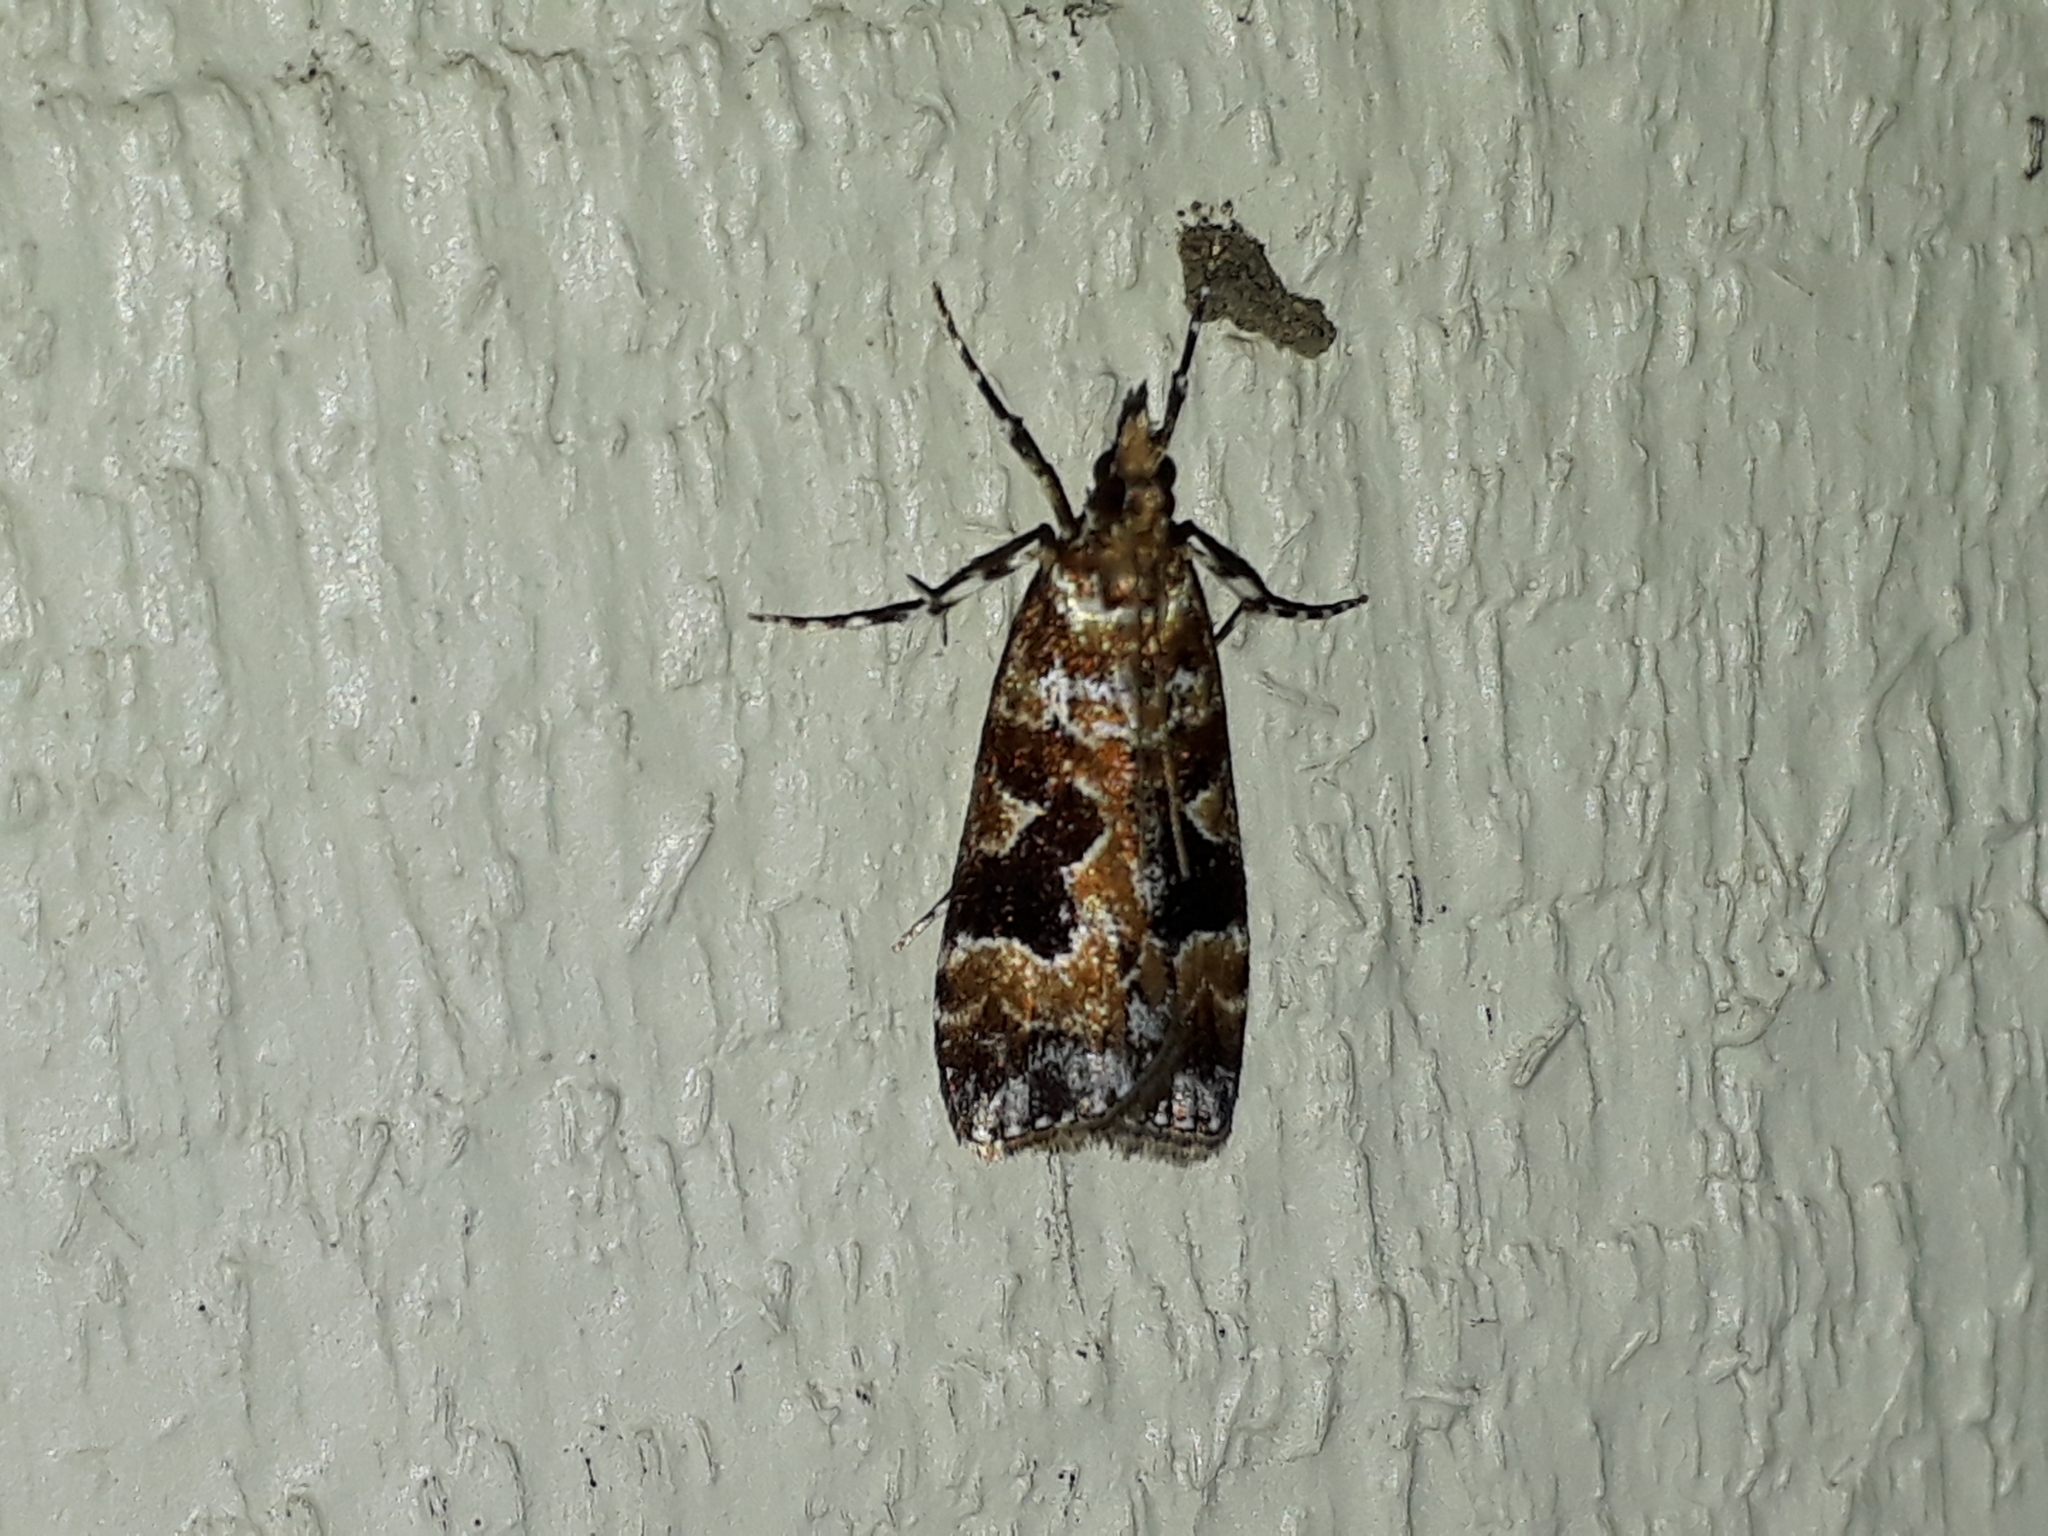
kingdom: Animalia
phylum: Arthropoda
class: Insecta
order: Lepidoptera
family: Crambidae
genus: Scoparia
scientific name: Scoparia ustimacula
